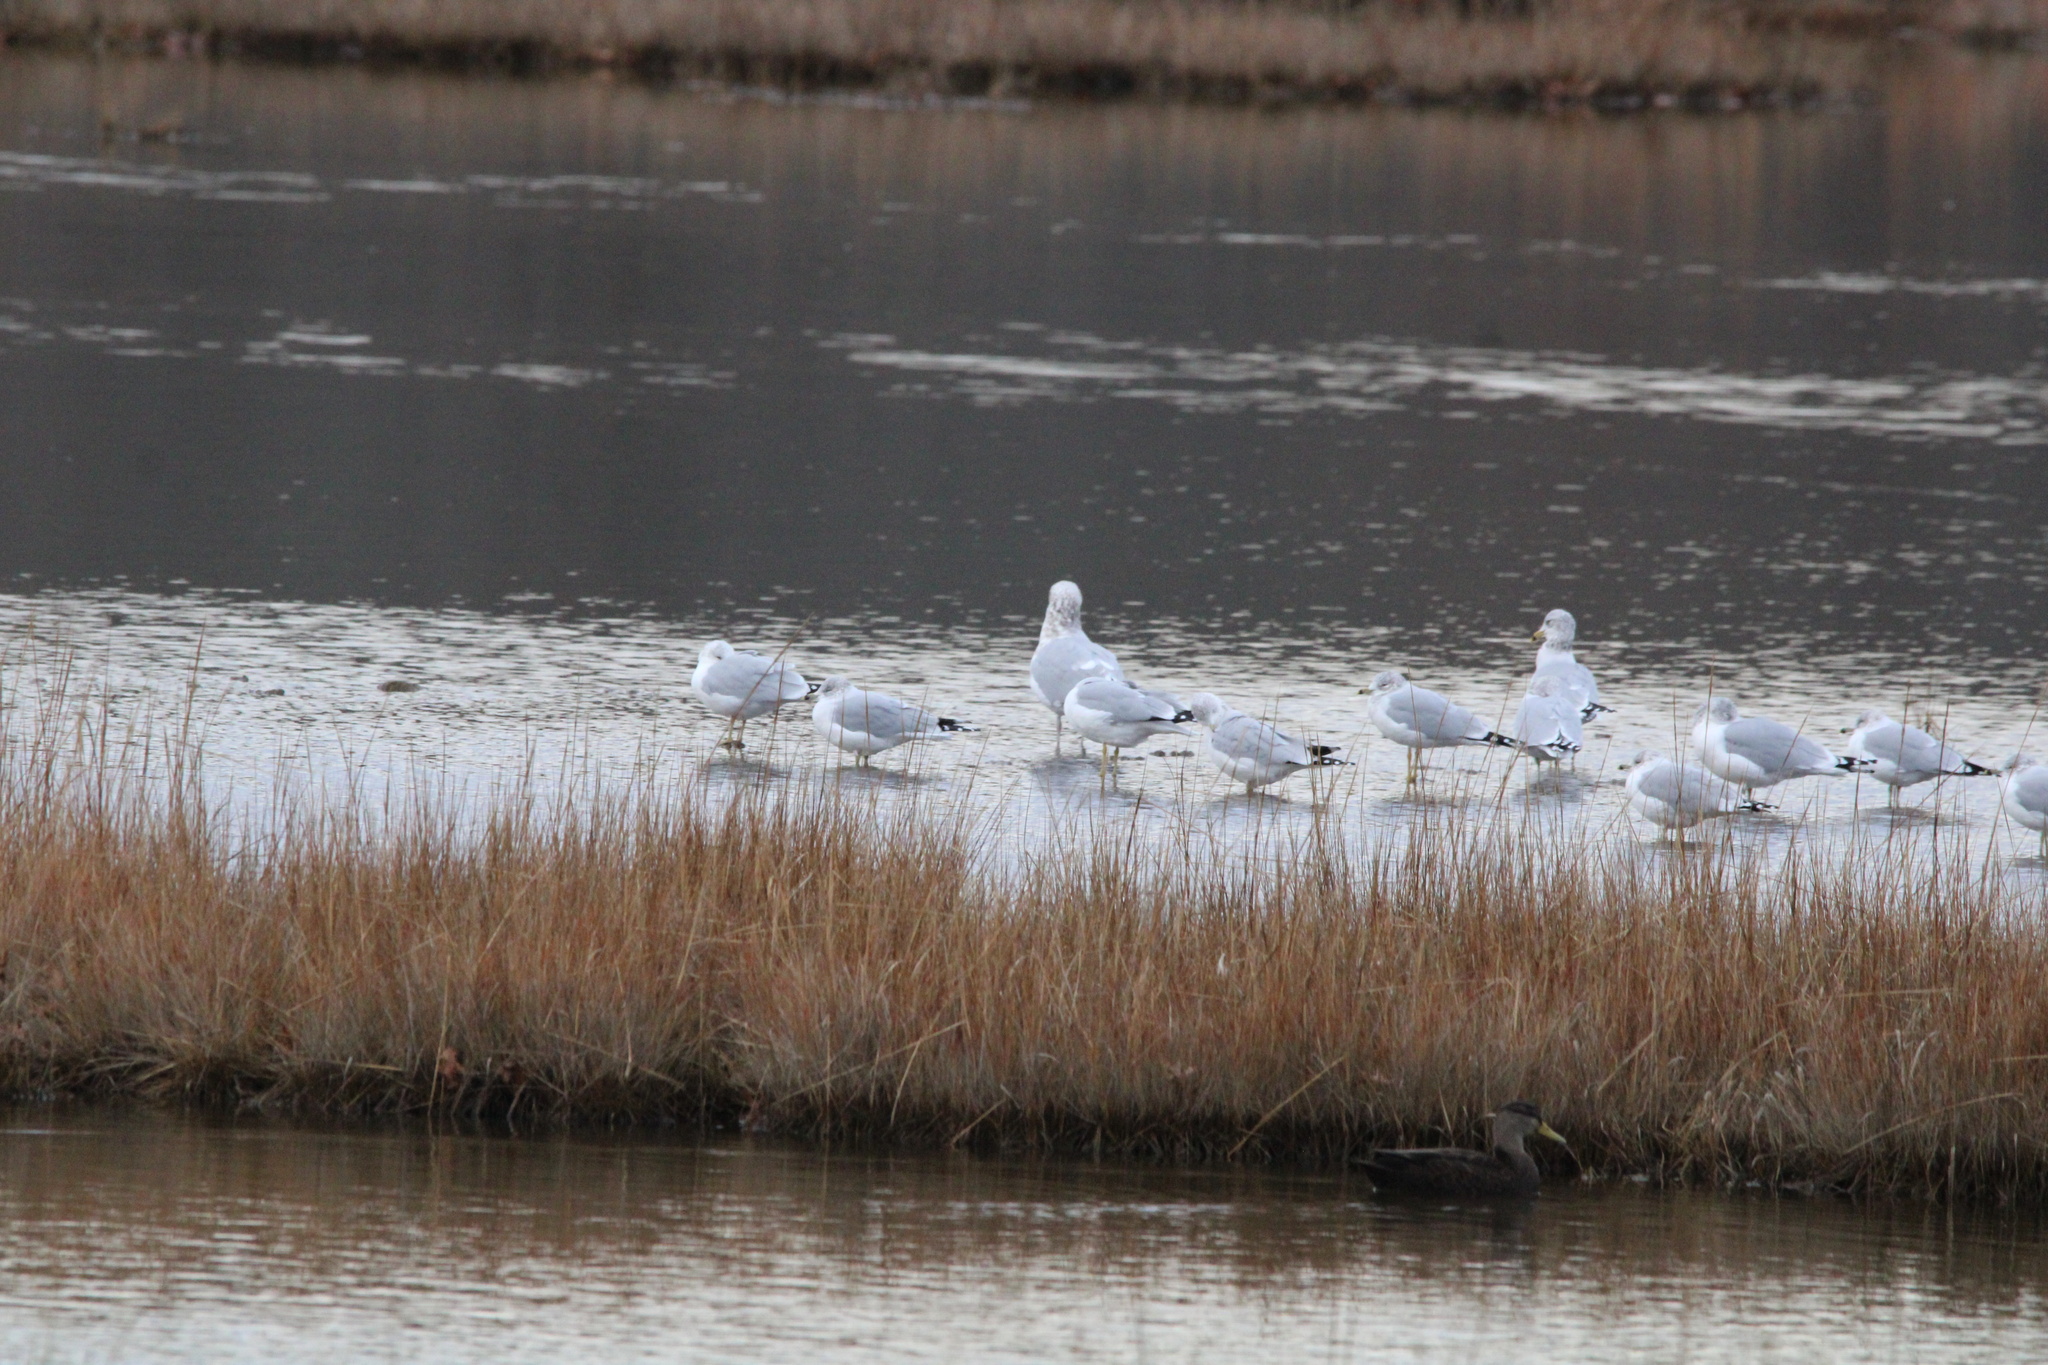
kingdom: Animalia
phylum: Chordata
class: Aves
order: Charadriiformes
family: Laridae
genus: Larus
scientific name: Larus delawarensis
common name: Ring-billed gull
